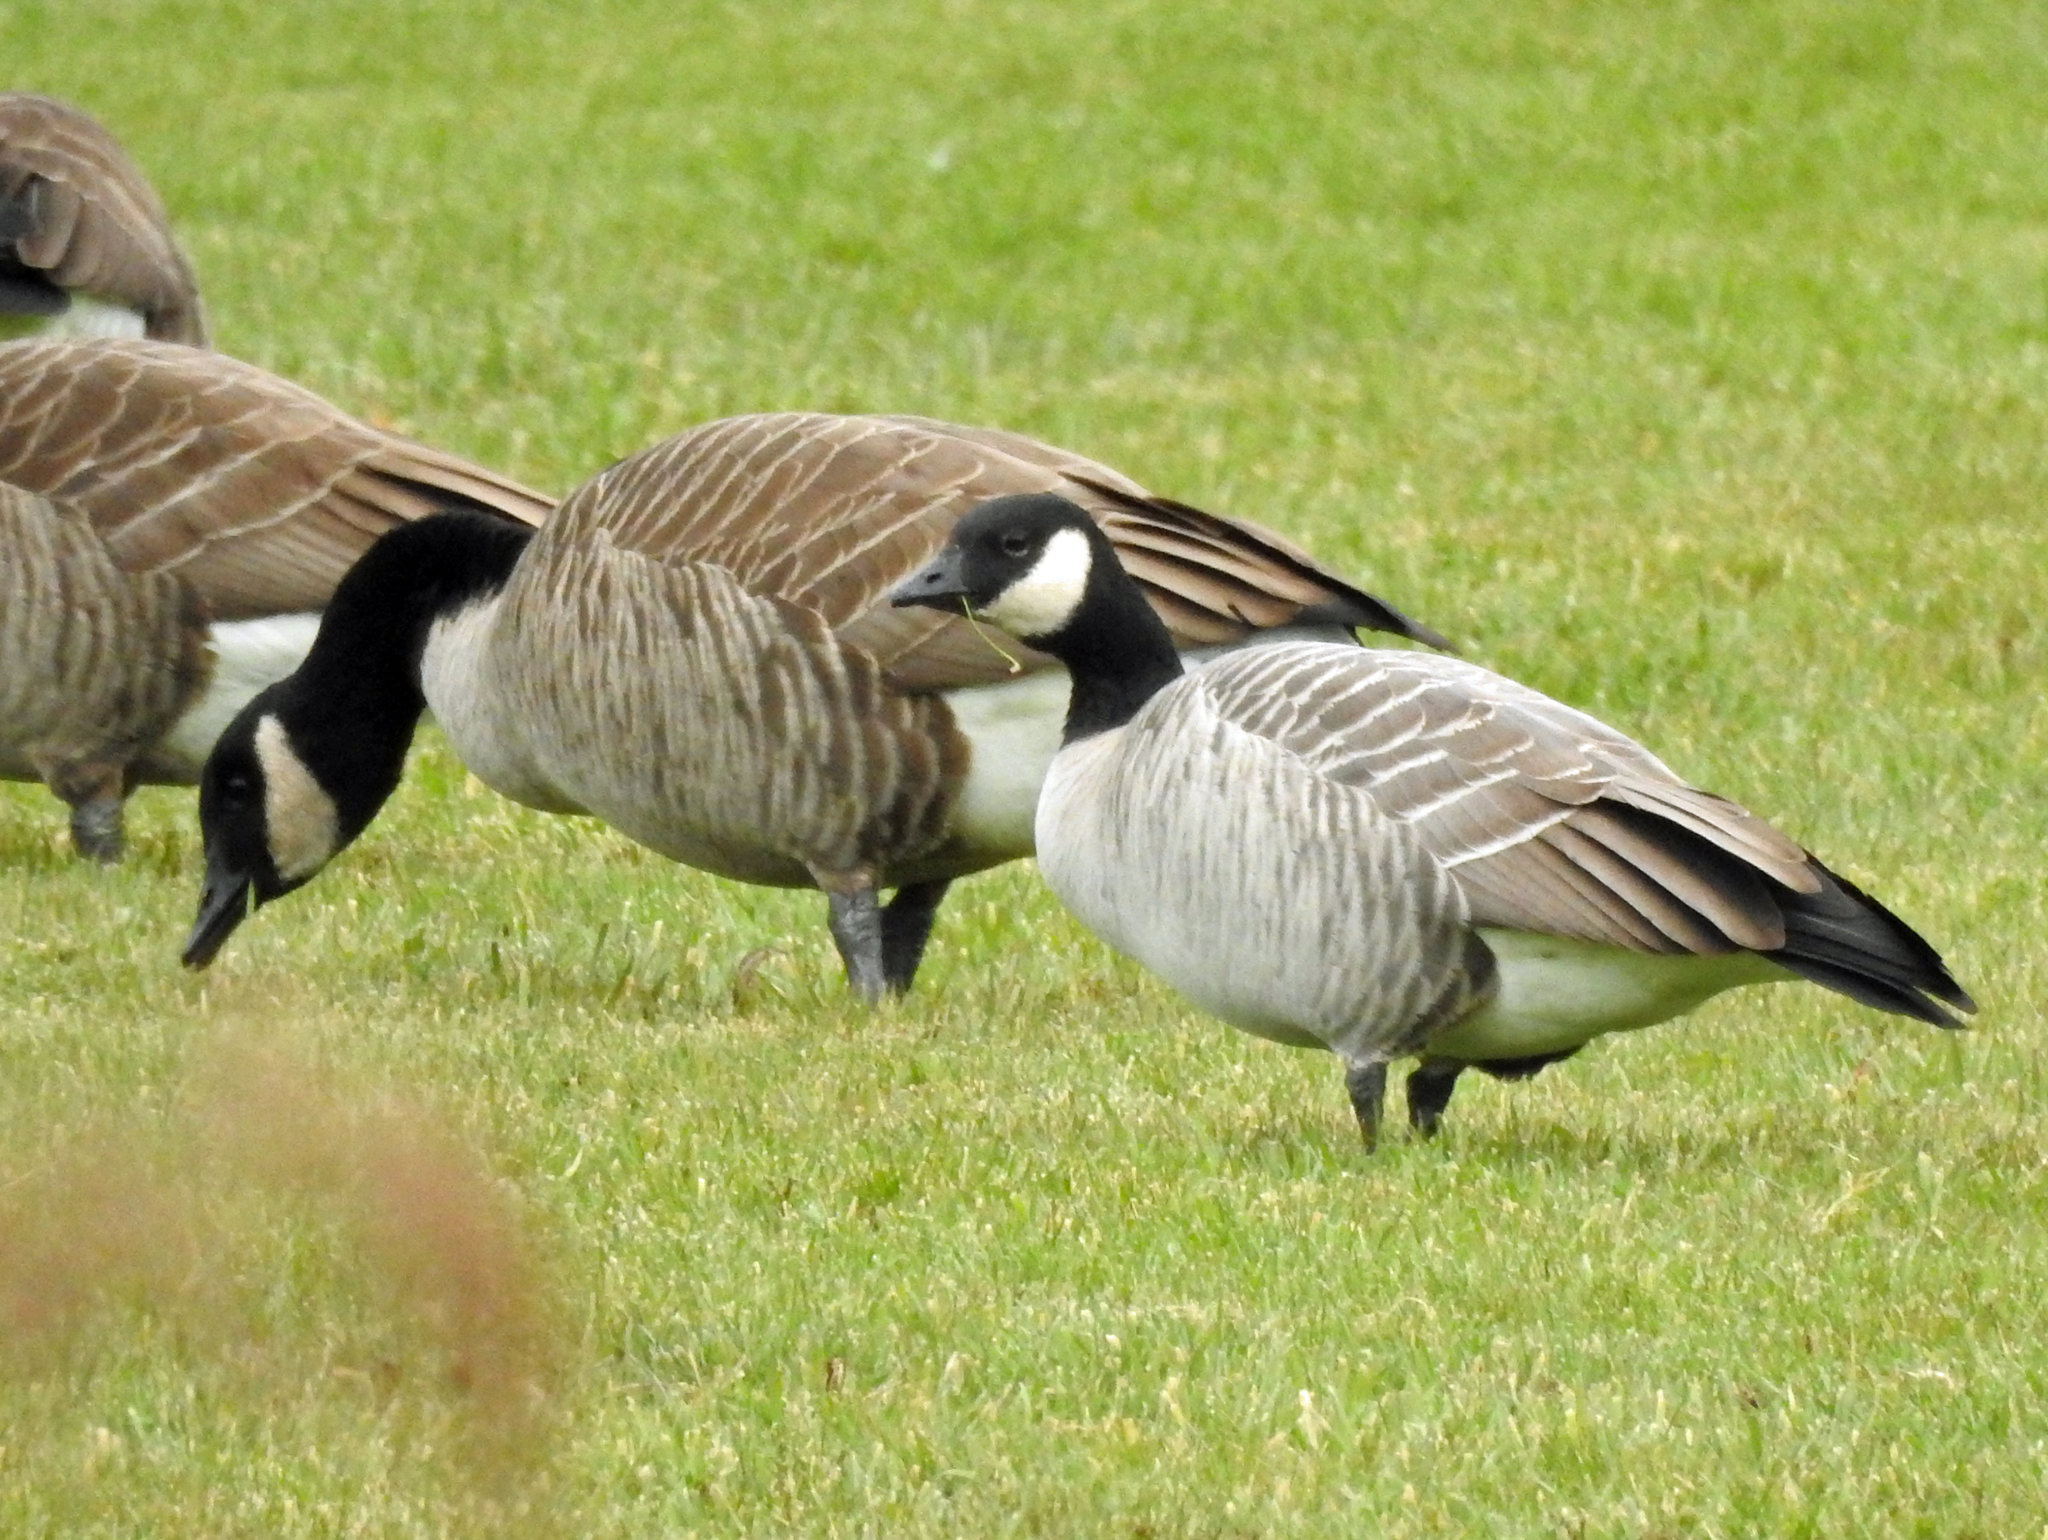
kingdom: Animalia
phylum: Chordata
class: Aves
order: Anseriformes
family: Anatidae
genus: Branta
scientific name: Branta canadensis
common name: Canada goose
